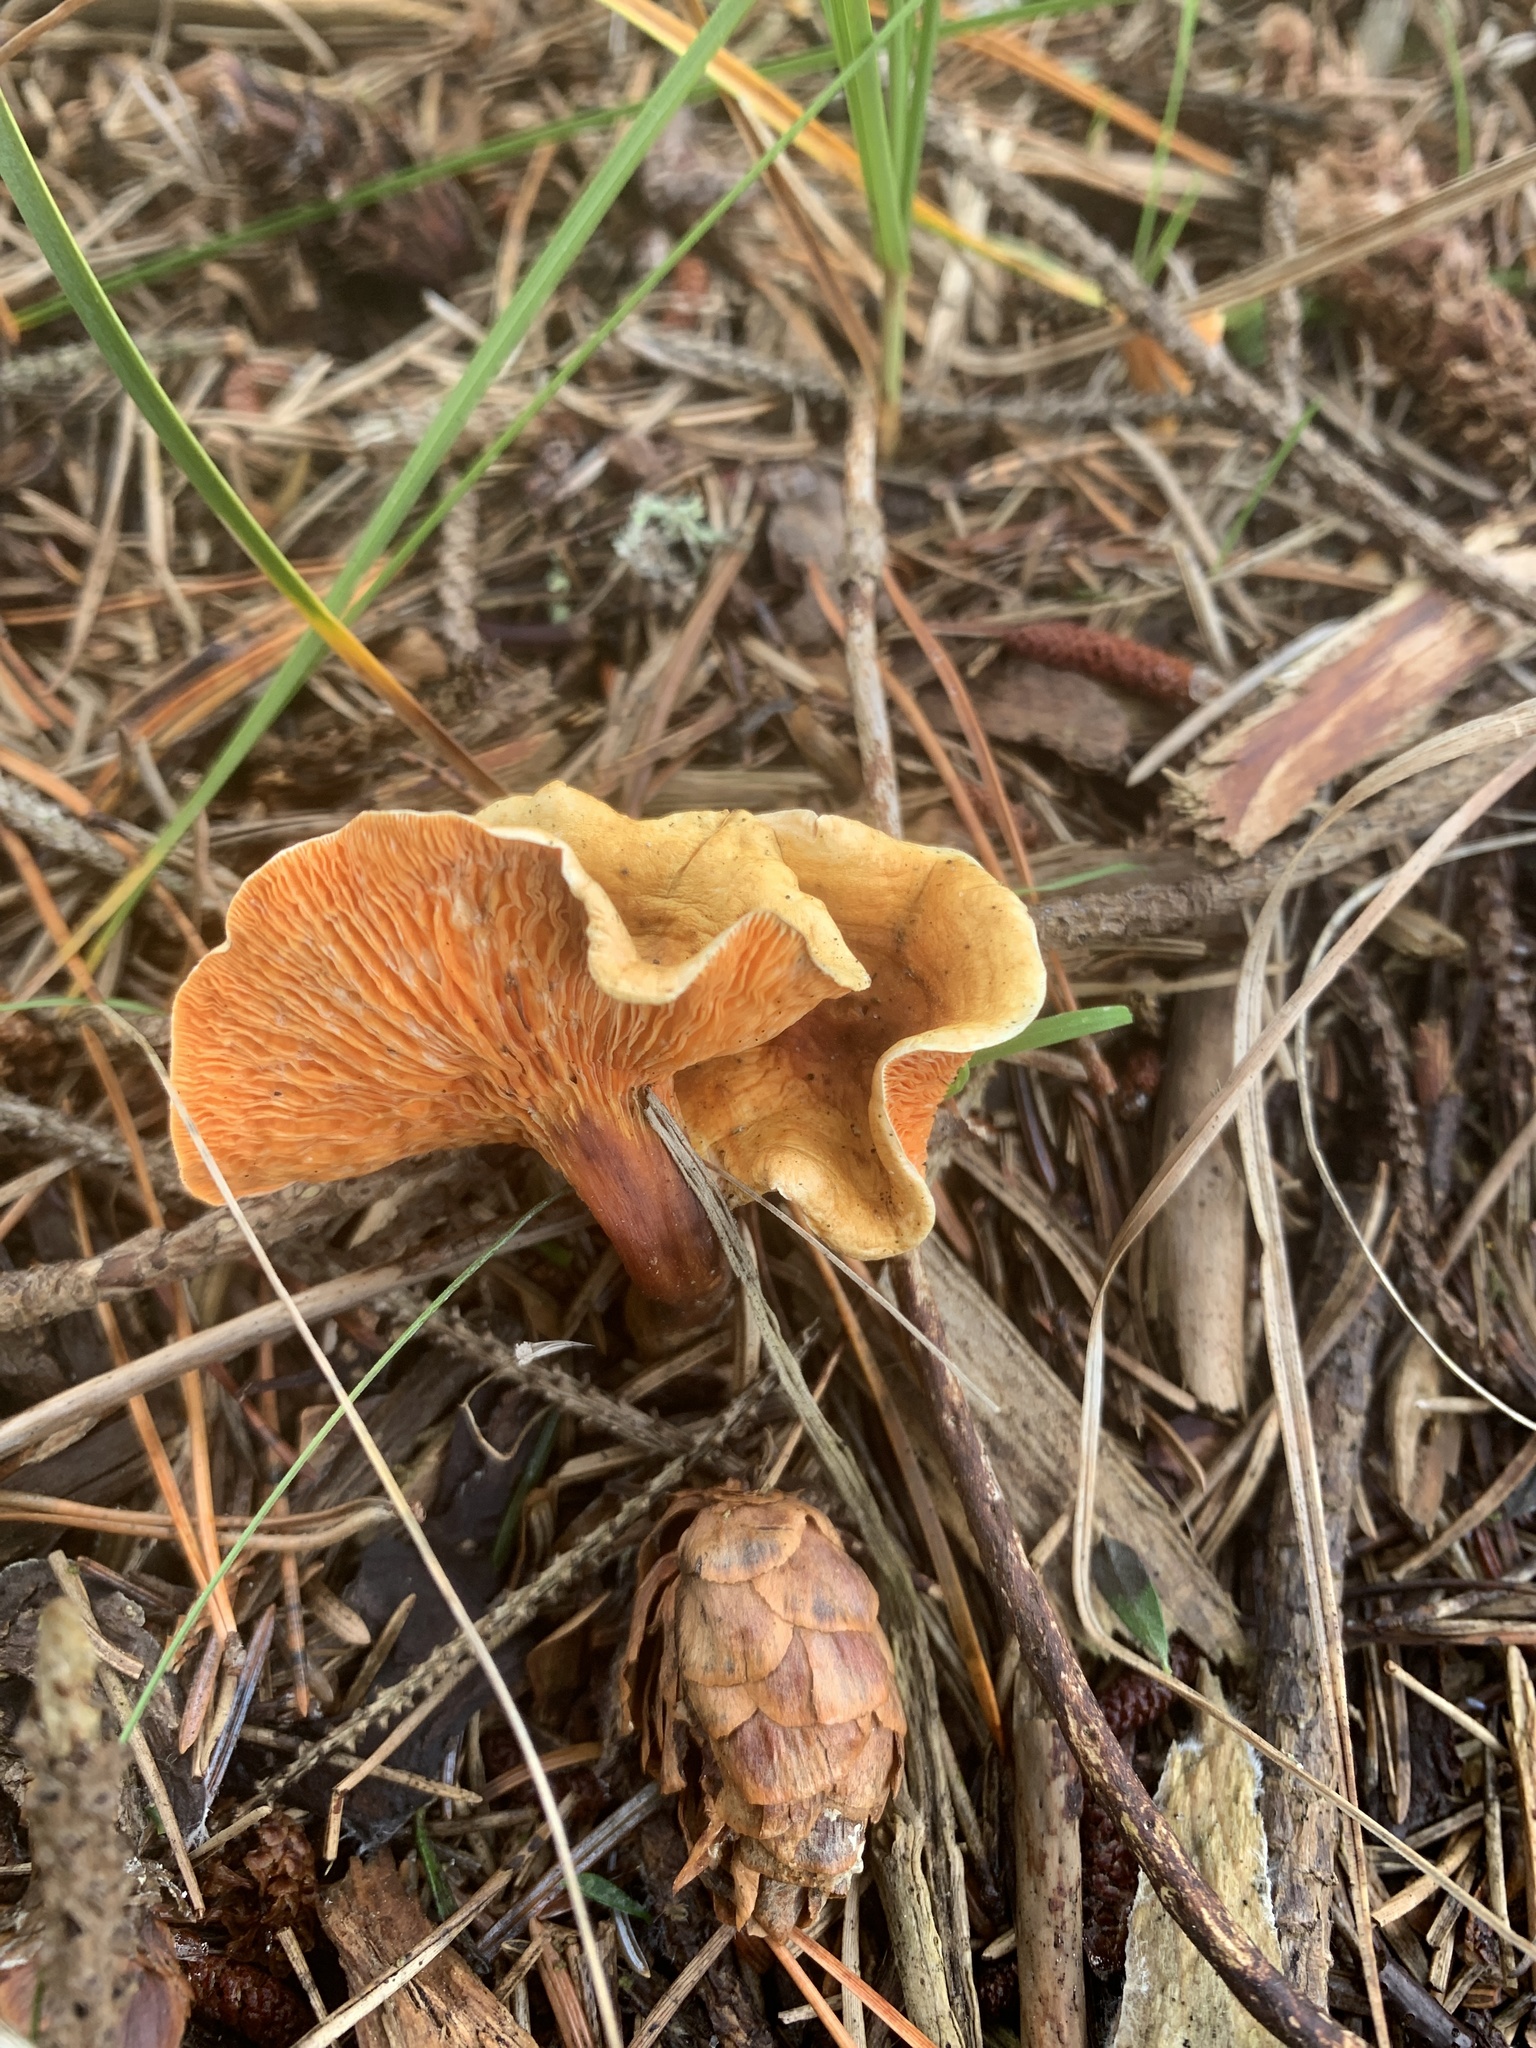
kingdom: Fungi
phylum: Basidiomycota
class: Agaricomycetes
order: Boletales
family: Hygrophoropsidaceae
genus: Hygrophoropsis
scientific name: Hygrophoropsis aurantiaca
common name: False chanterelle
